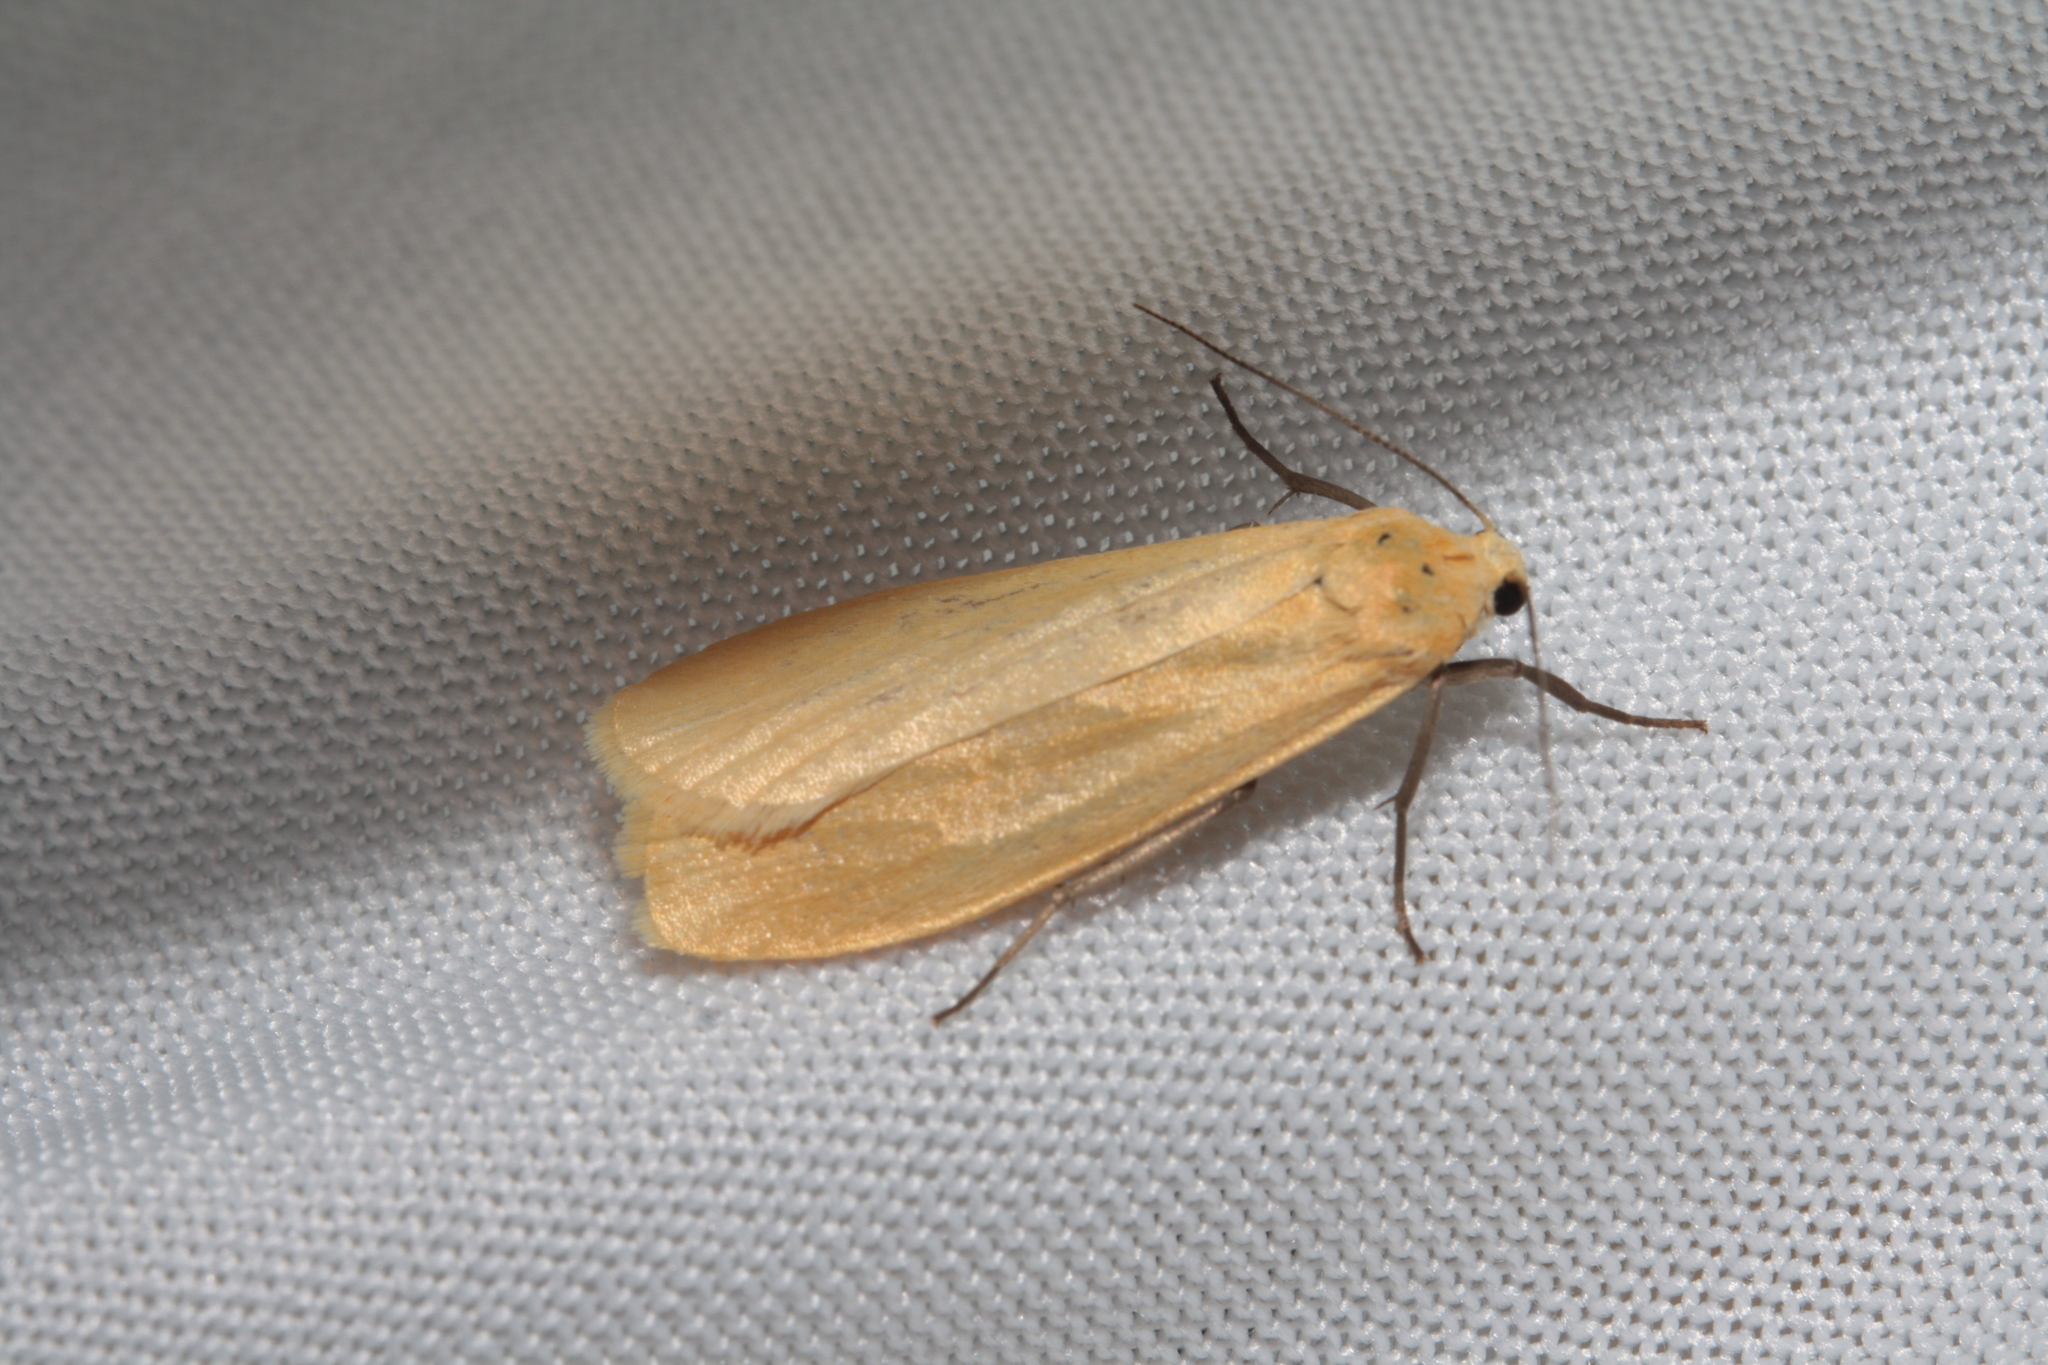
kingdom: Animalia
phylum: Arthropoda
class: Insecta
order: Lepidoptera
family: Erebidae
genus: Wittia
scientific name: Wittia sororcula
